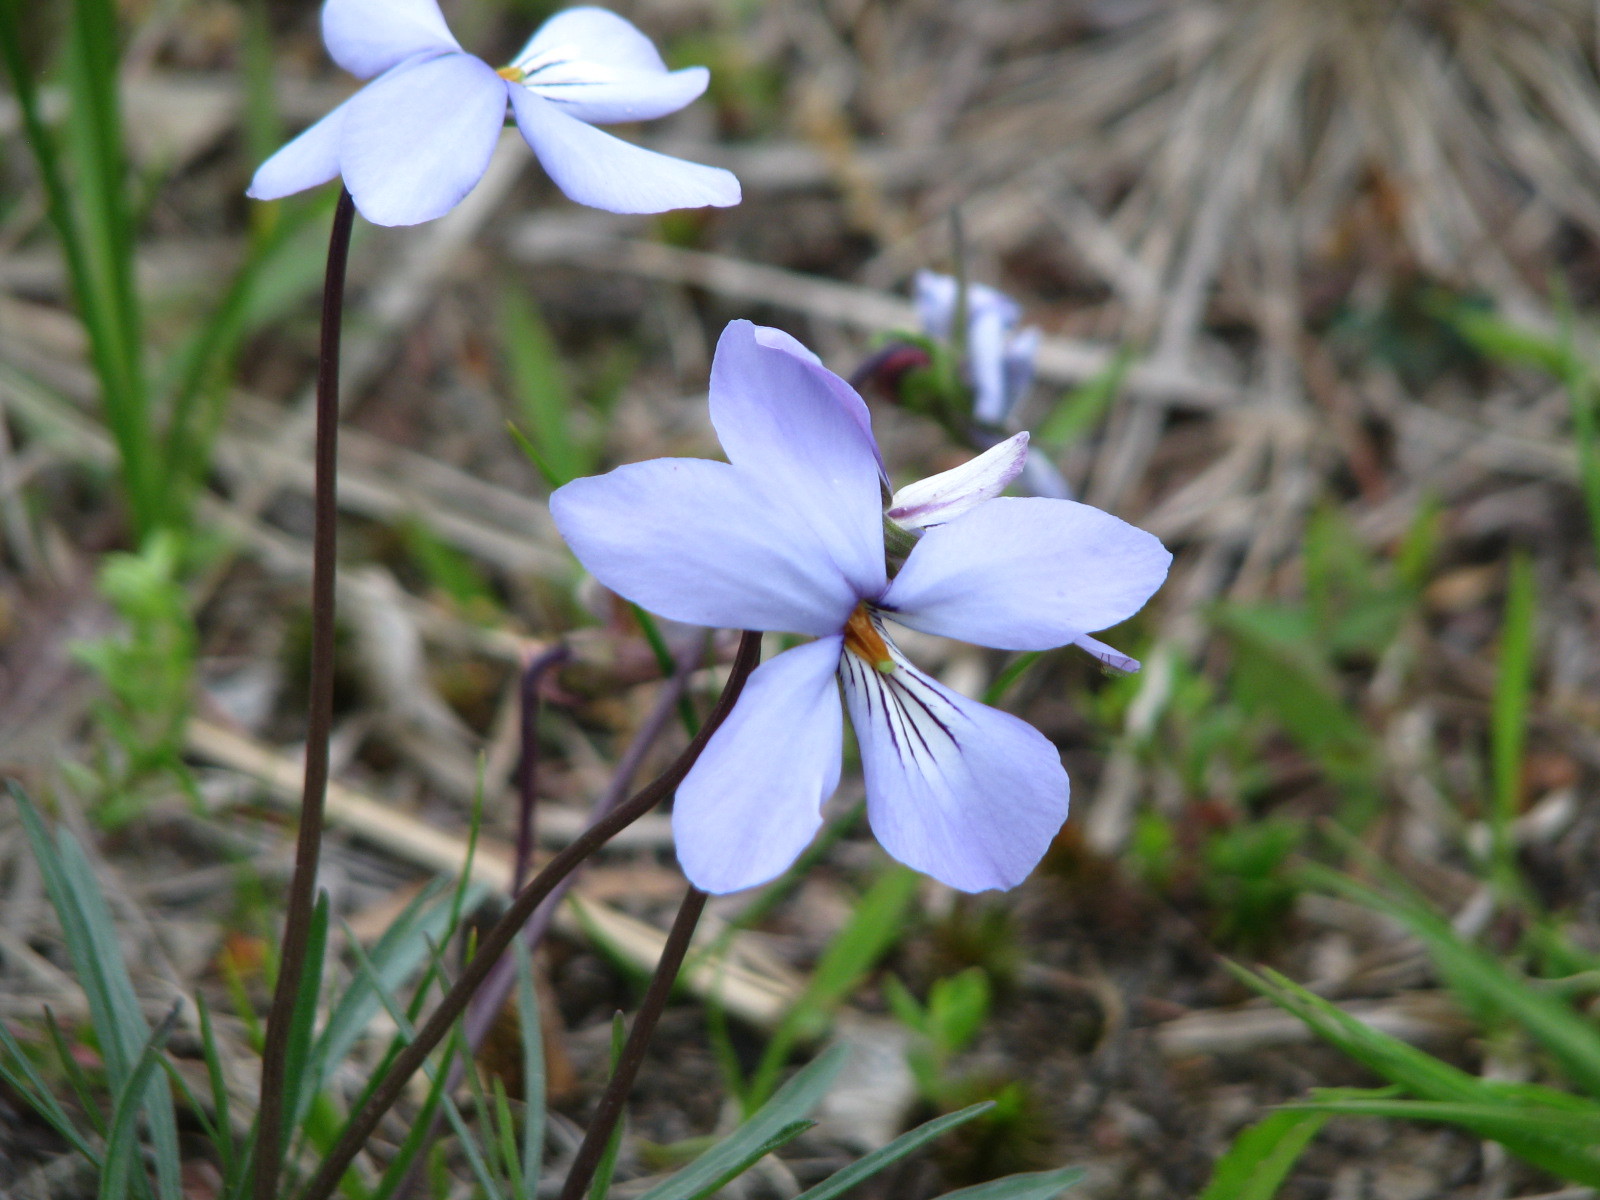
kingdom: Plantae
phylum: Tracheophyta
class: Magnoliopsida
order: Malpighiales
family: Violaceae
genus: Viola
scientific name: Viola pedata
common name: Pansy violet
